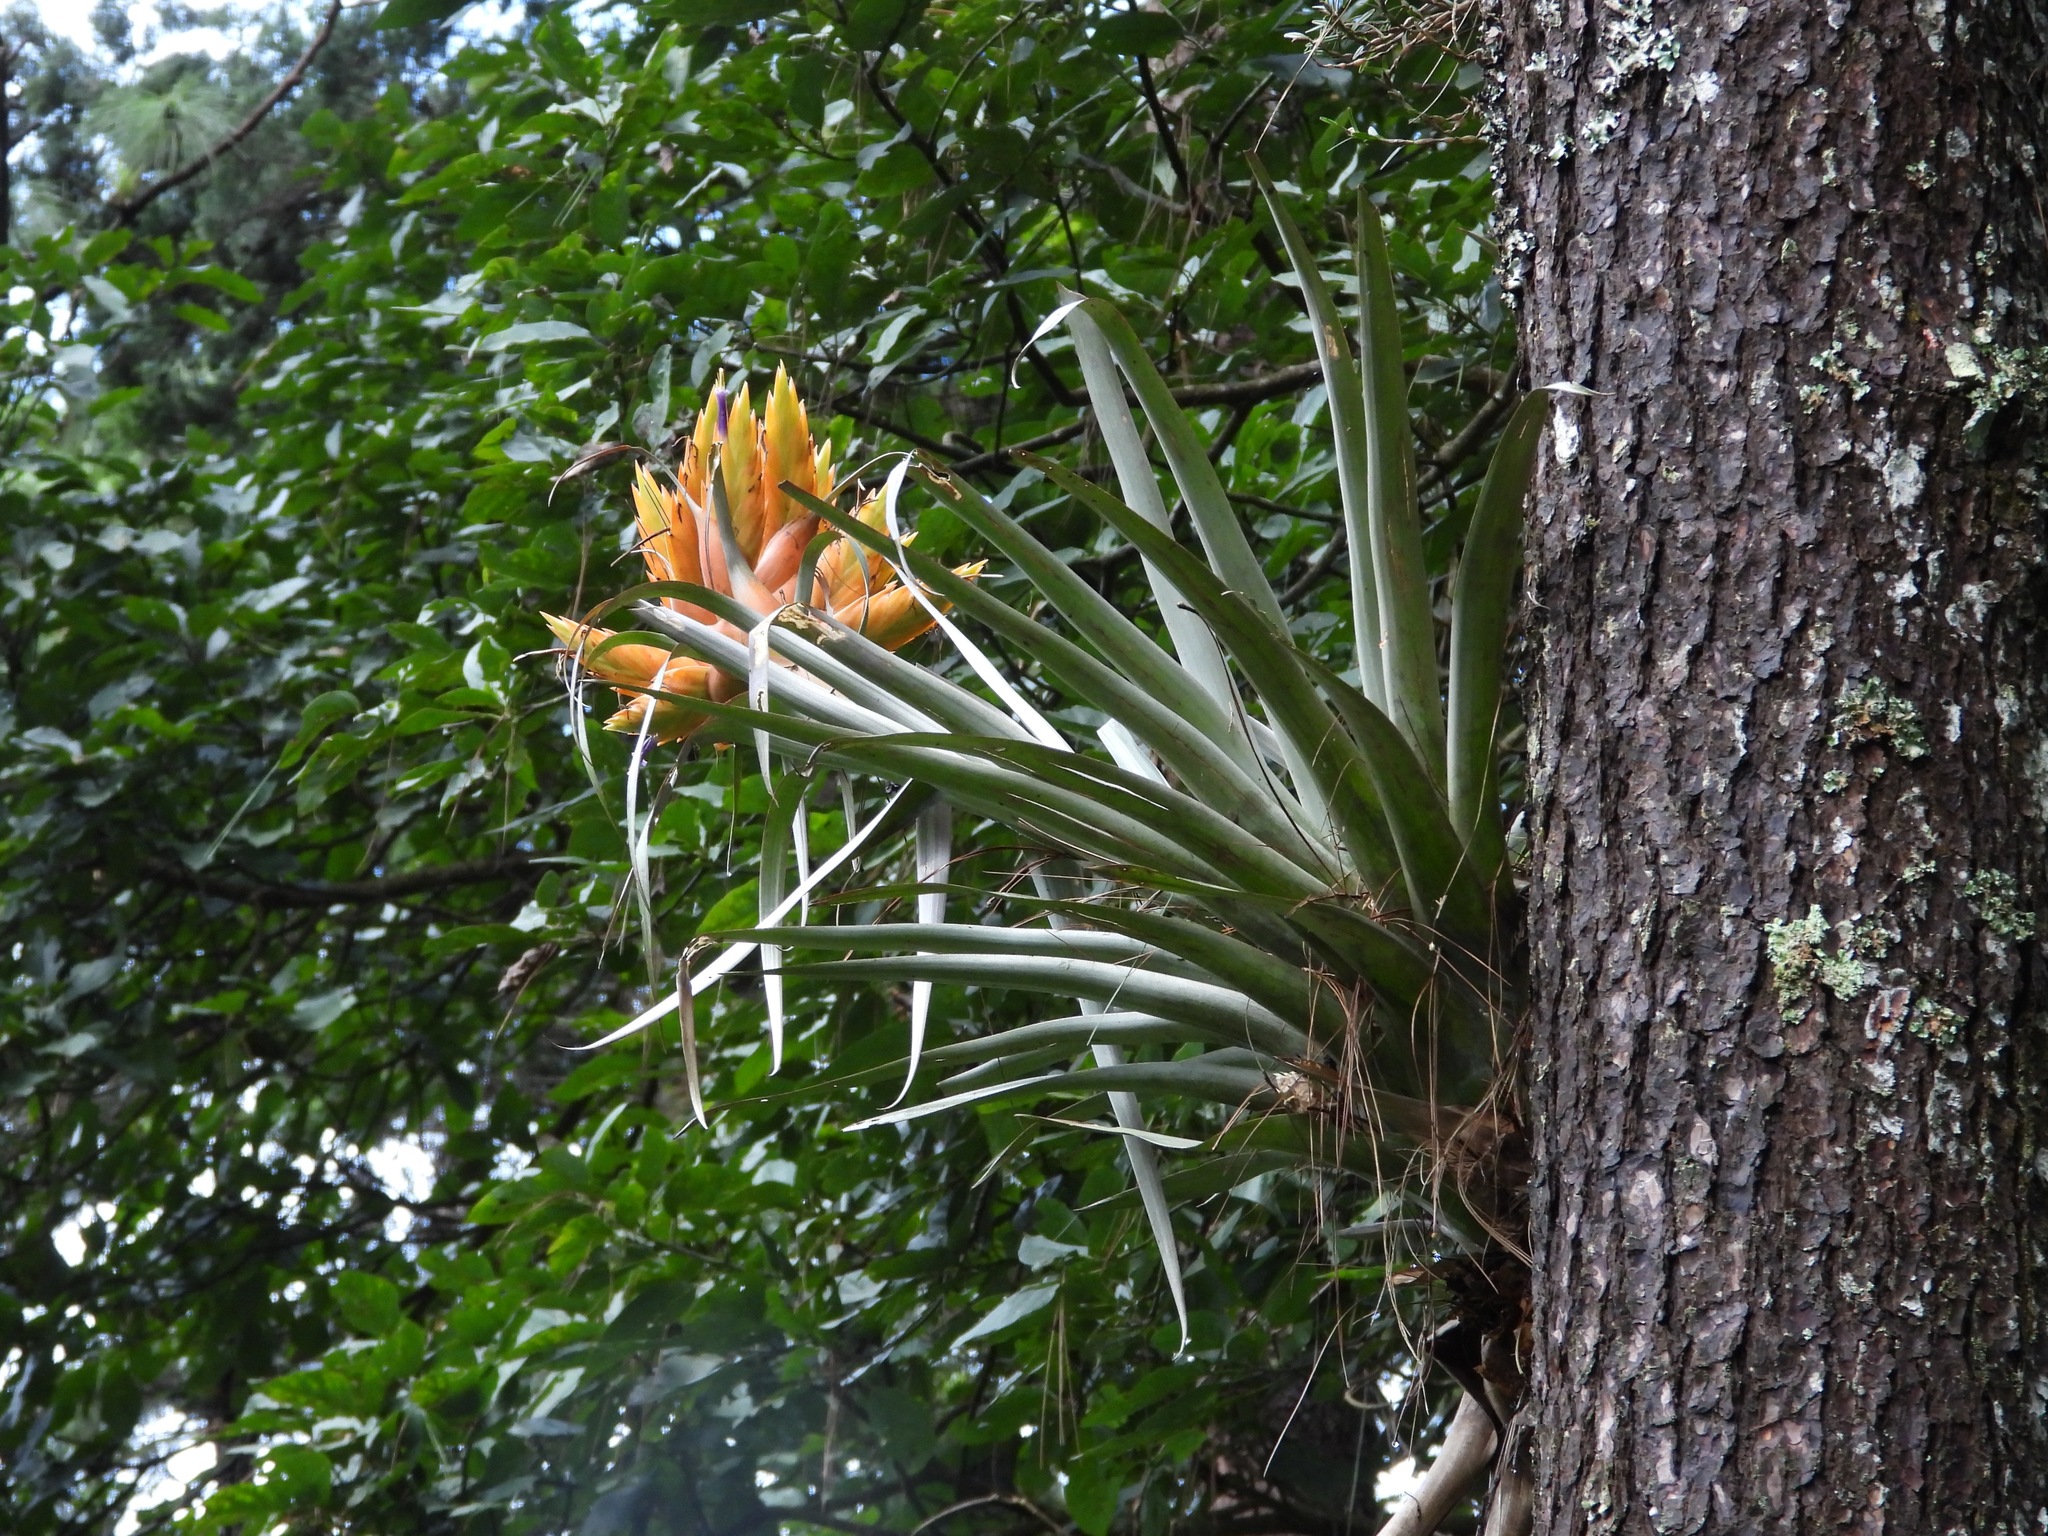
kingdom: Plantae
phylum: Tracheophyta
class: Liliopsida
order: Poales
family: Bromeliaceae
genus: Tillandsia
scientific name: Tillandsia ponderosa
